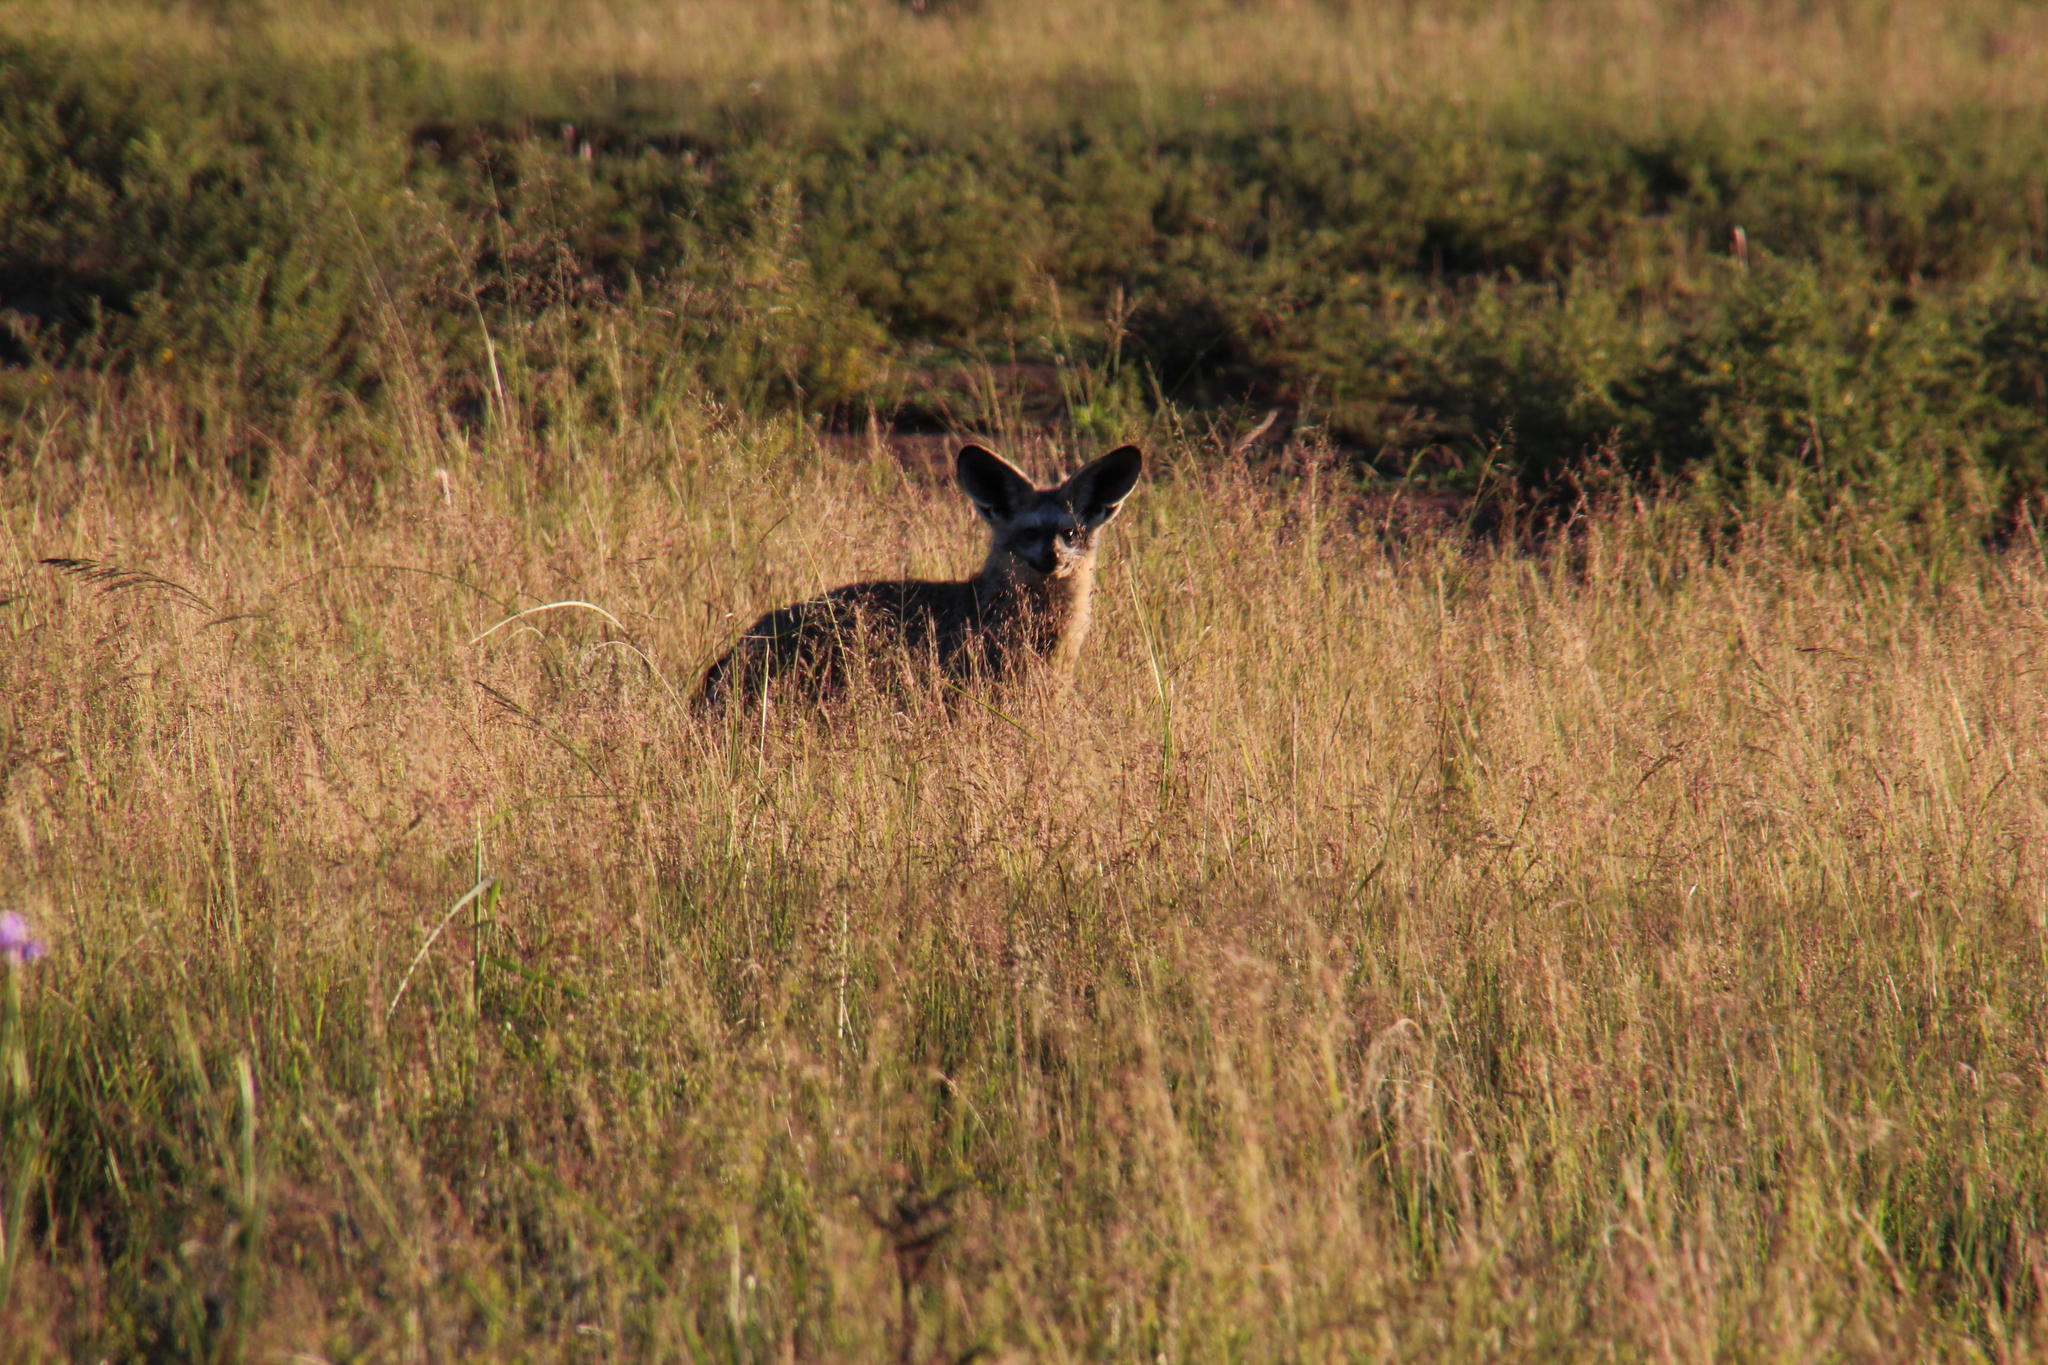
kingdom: Animalia
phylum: Chordata
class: Mammalia
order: Carnivora
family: Canidae
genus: Otocyon
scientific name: Otocyon megalotis
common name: Bat-eared fox
